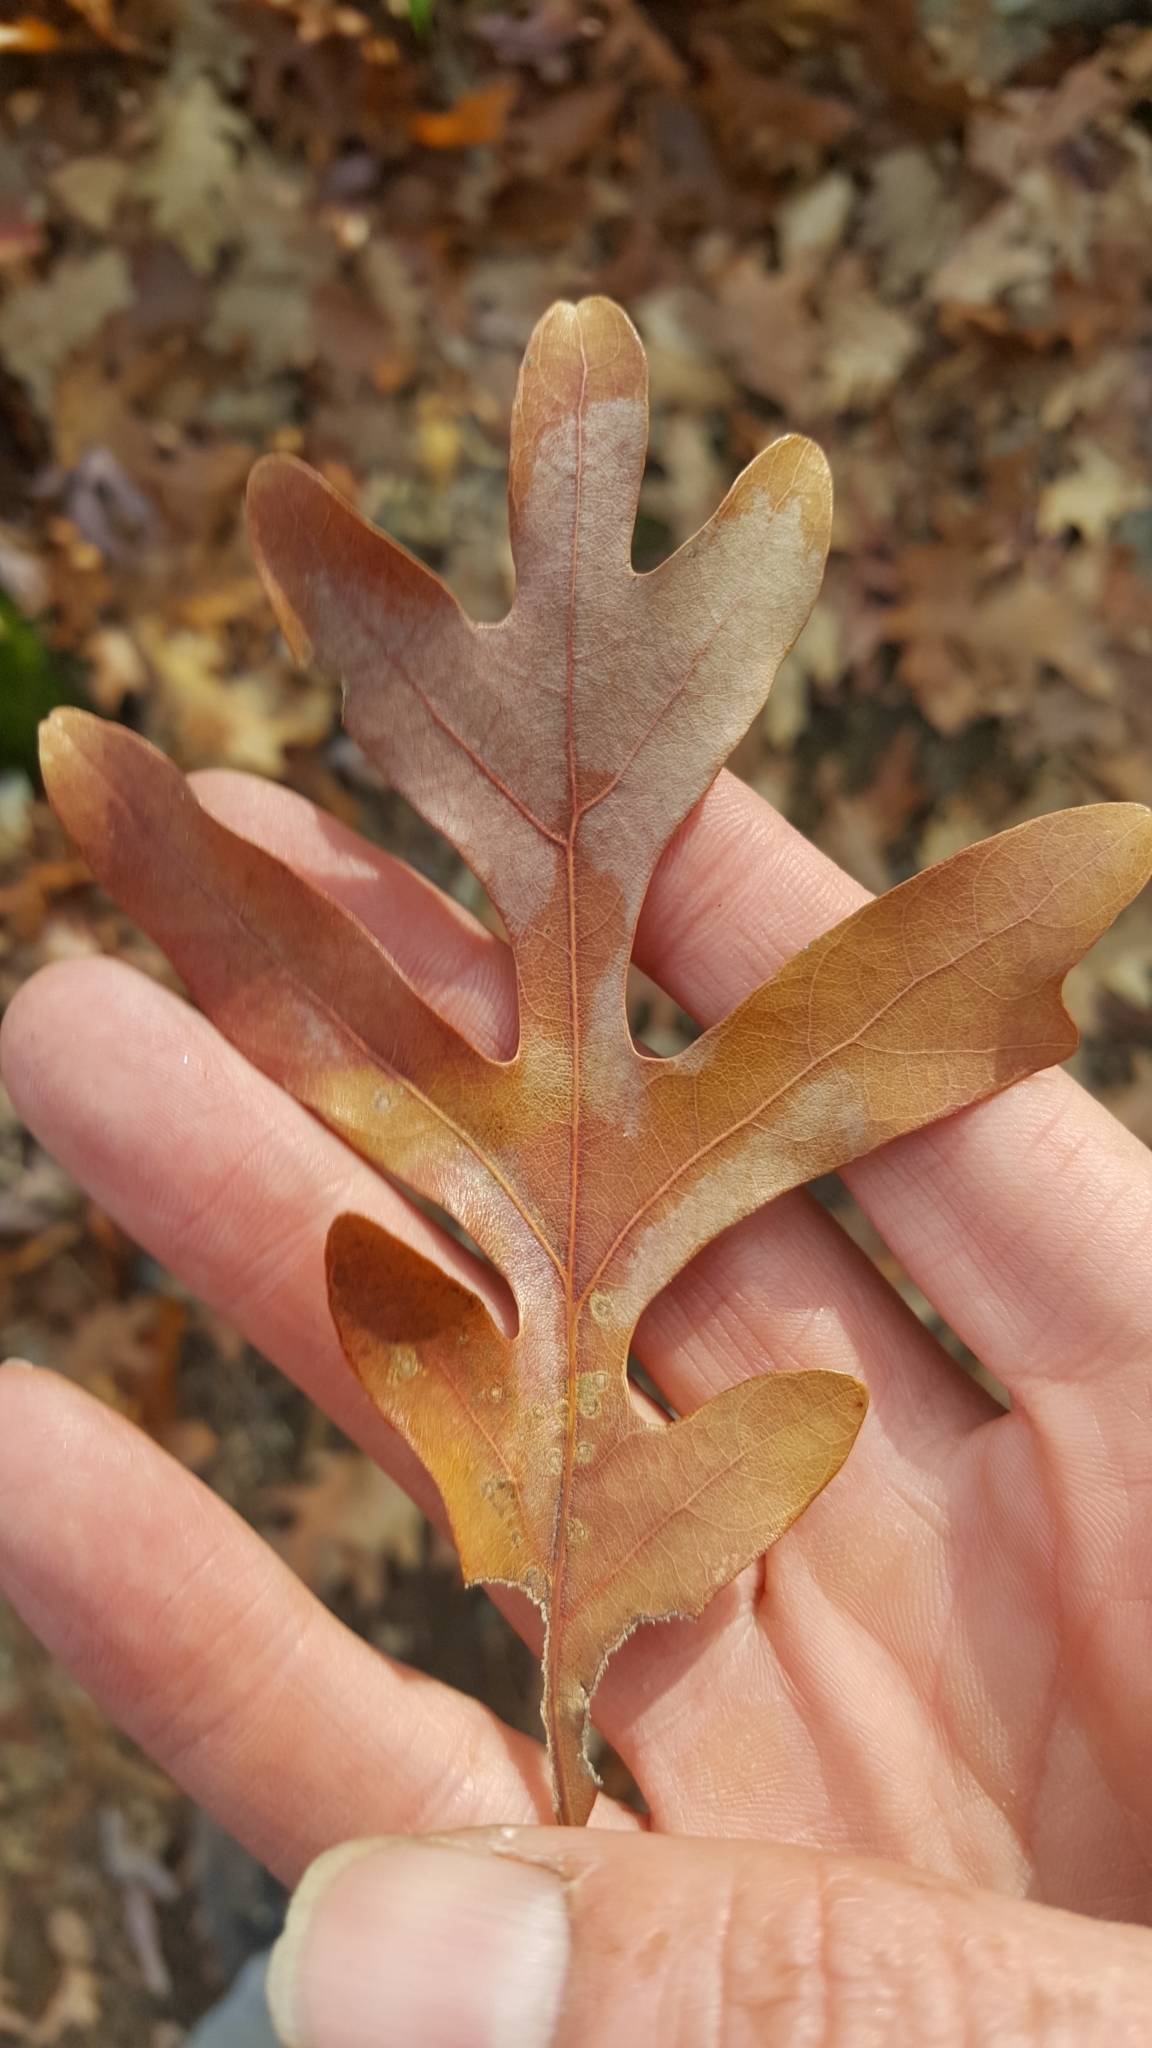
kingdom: Plantae
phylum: Tracheophyta
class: Magnoliopsida
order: Fagales
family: Fagaceae
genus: Quercus
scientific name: Quercus alba
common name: White oak
